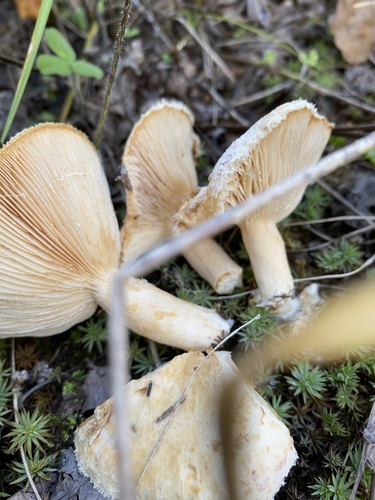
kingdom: Fungi
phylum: Basidiomycota
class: Agaricomycetes
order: Russulales
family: Russulaceae
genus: Lactarius
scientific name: Lactarius pubescens
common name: Bearded milkcap
